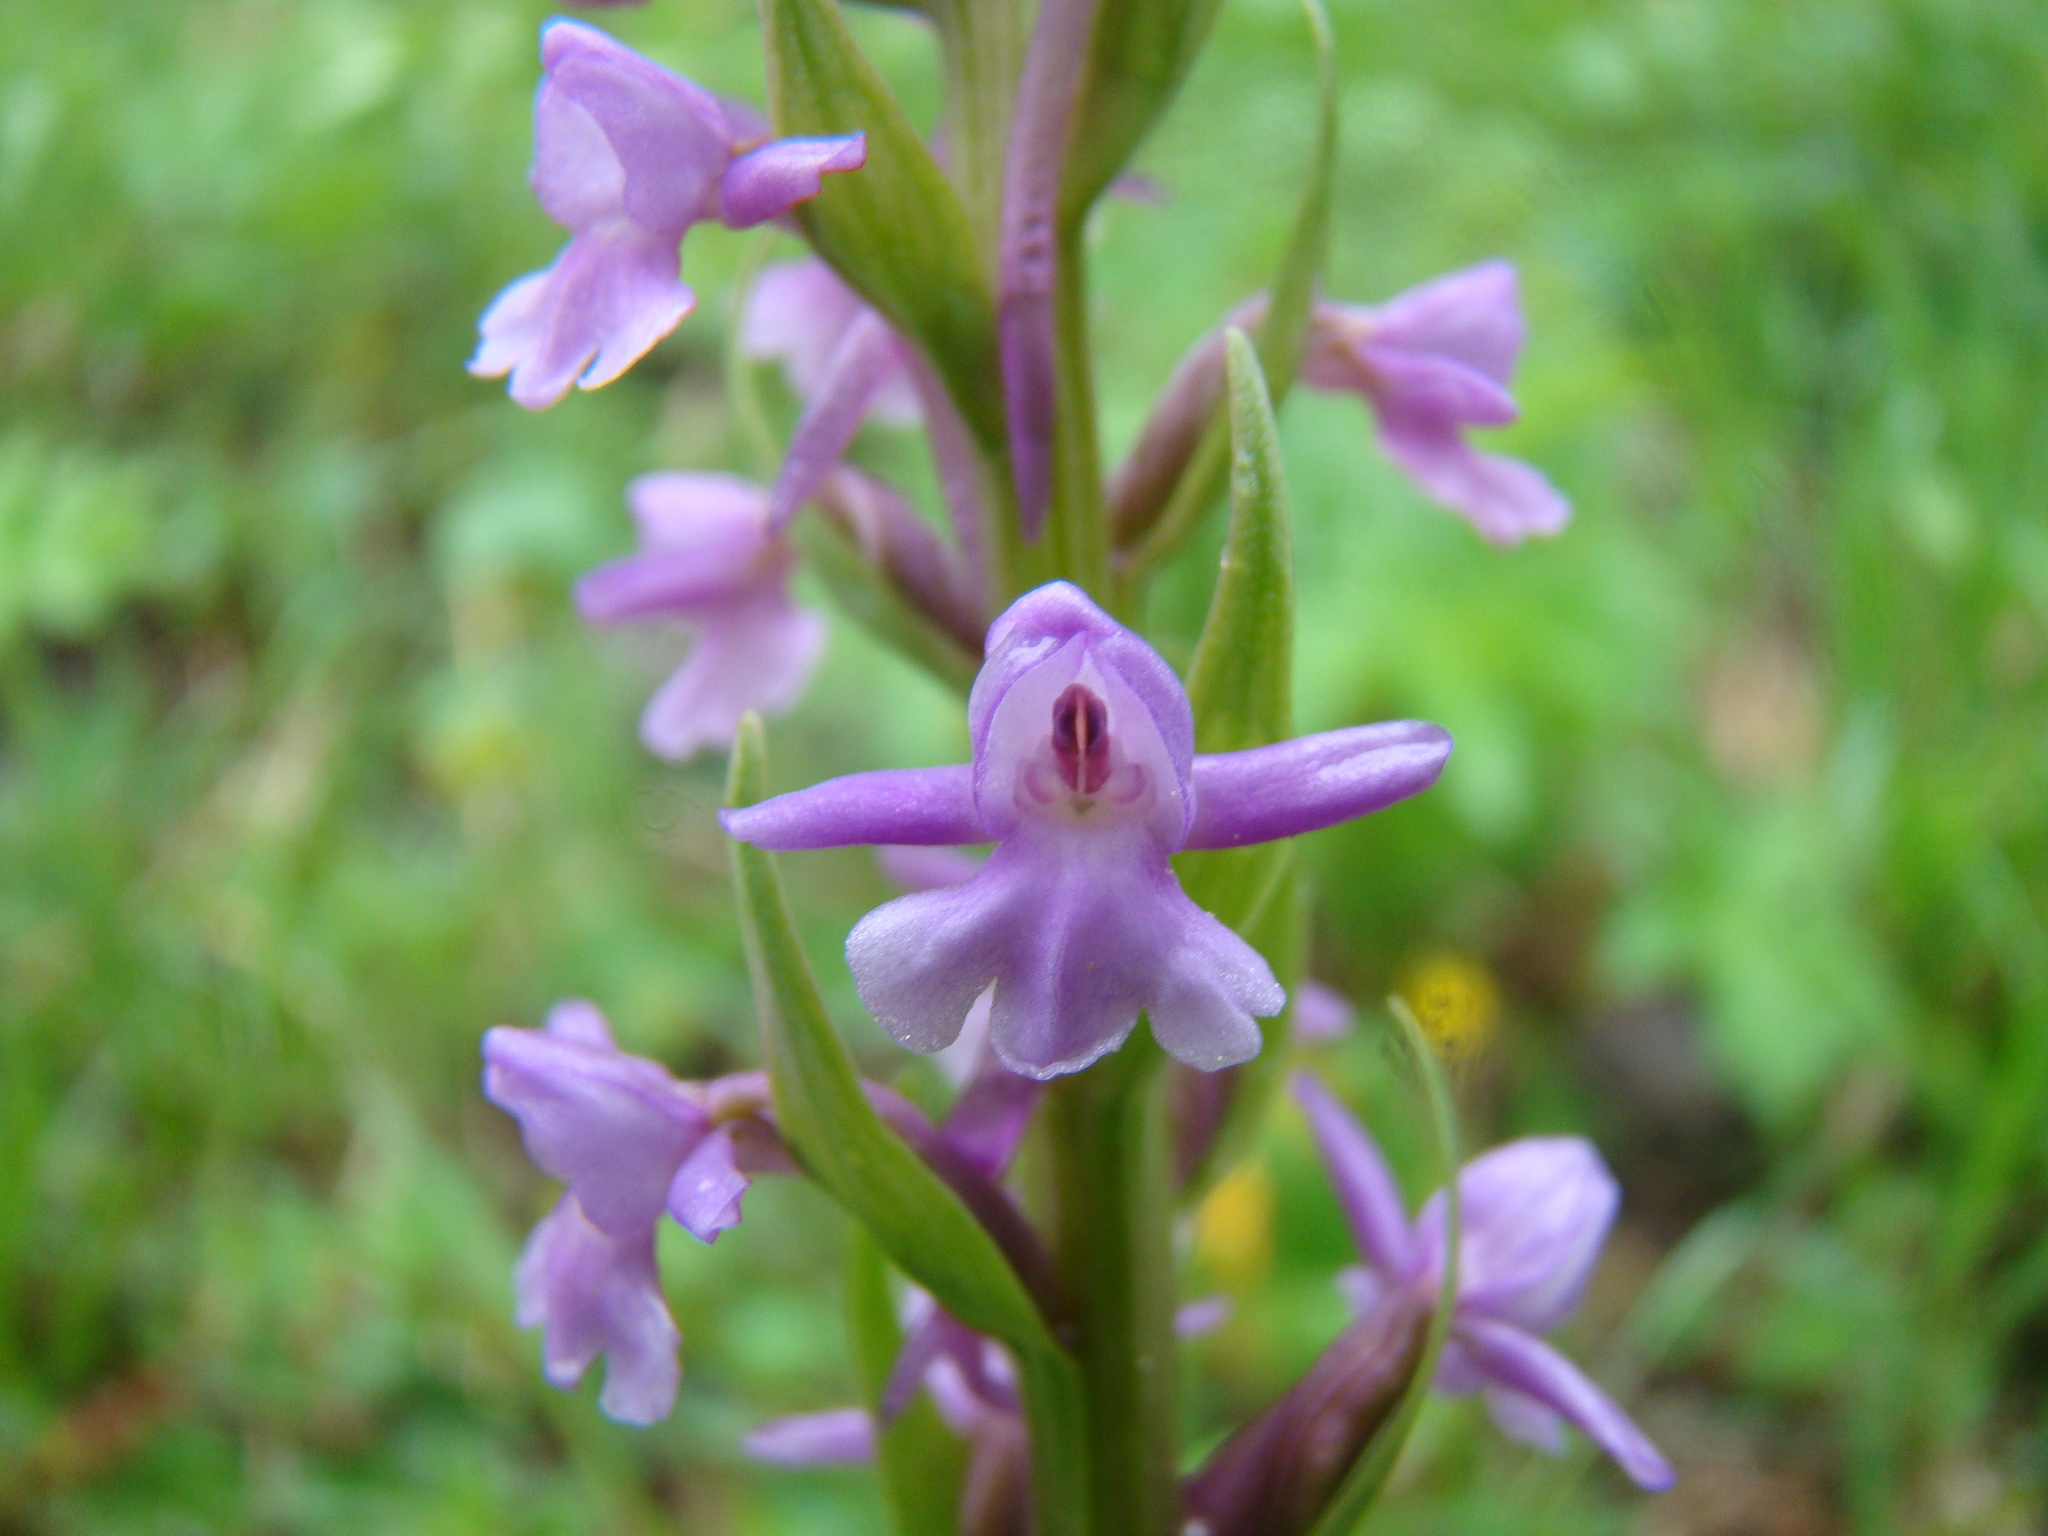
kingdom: Plantae
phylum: Tracheophyta
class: Liliopsida
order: Asparagales
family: Orchidaceae
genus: Gymnadenia
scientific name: Gymnadenia conopsea
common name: Fragrant orchid
